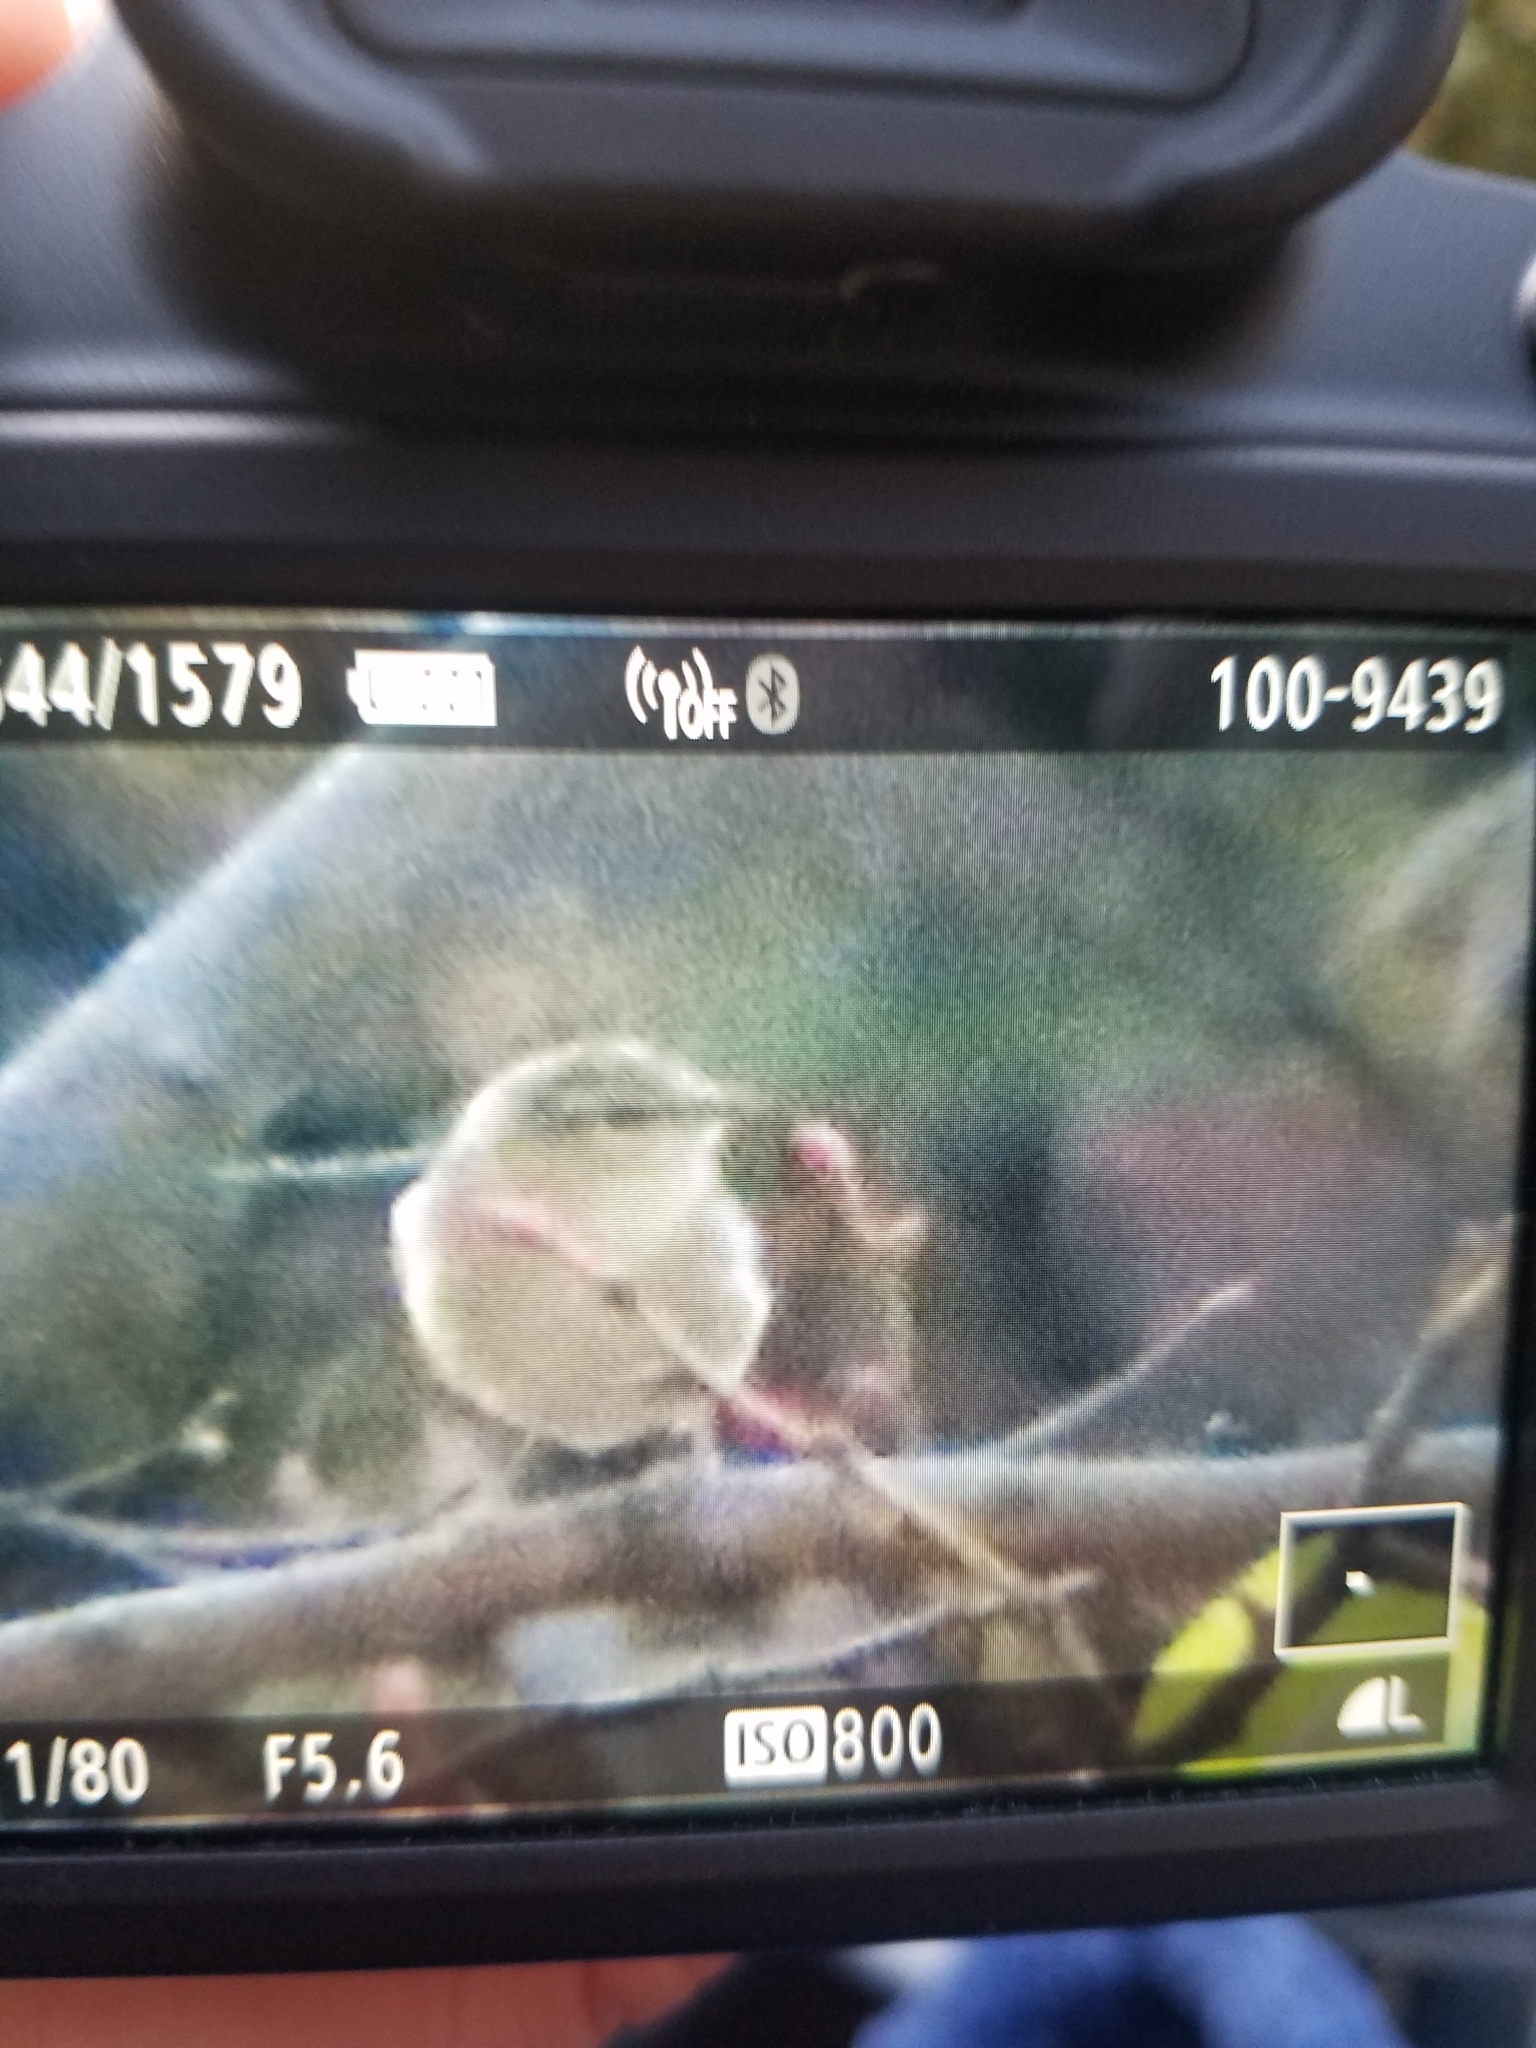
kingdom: Animalia
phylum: Chordata
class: Aves
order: Passeriformes
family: Parulidae
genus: Leiothlypis
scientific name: Leiothlypis celata
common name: Orange-crowned warbler
